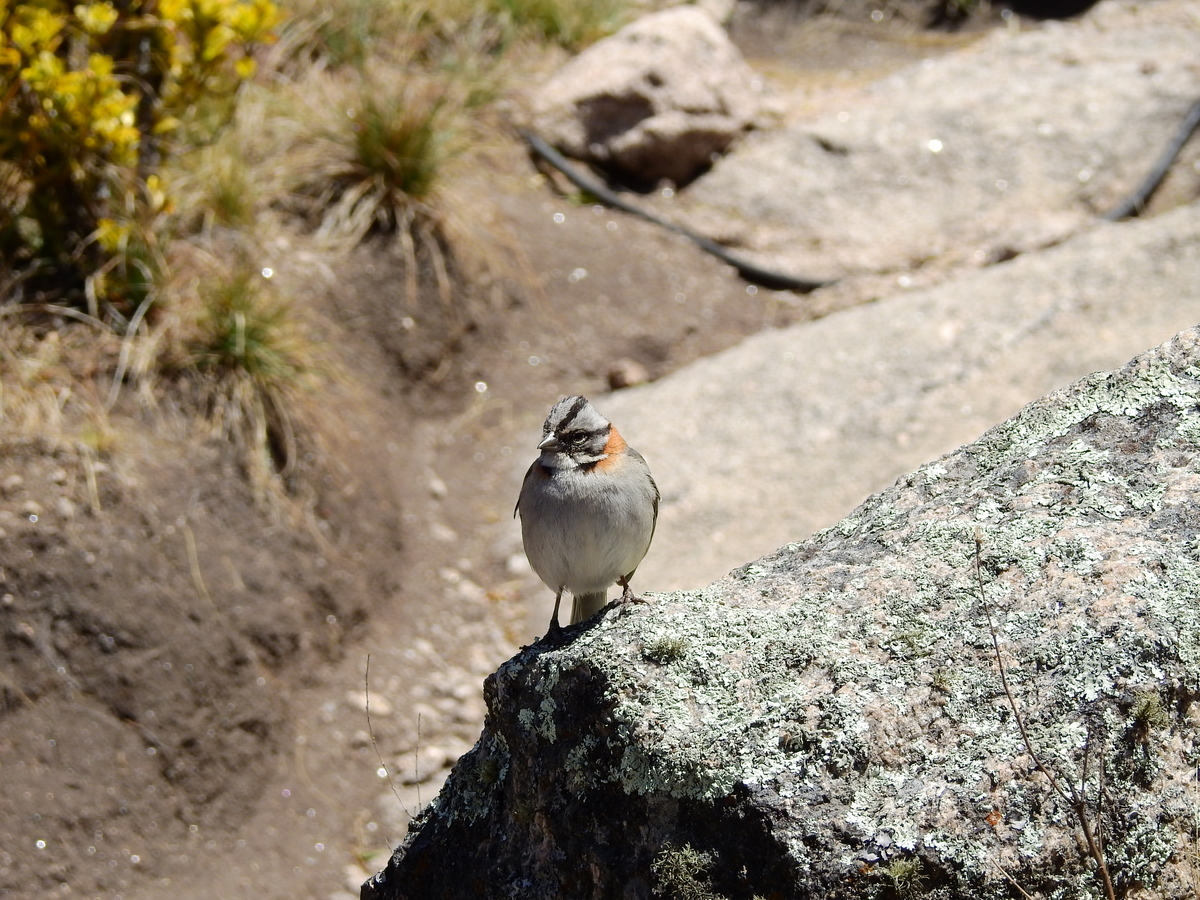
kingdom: Animalia
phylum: Chordata
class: Aves
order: Passeriformes
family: Passerellidae
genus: Zonotrichia
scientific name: Zonotrichia capensis
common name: Rufous-collared sparrow
